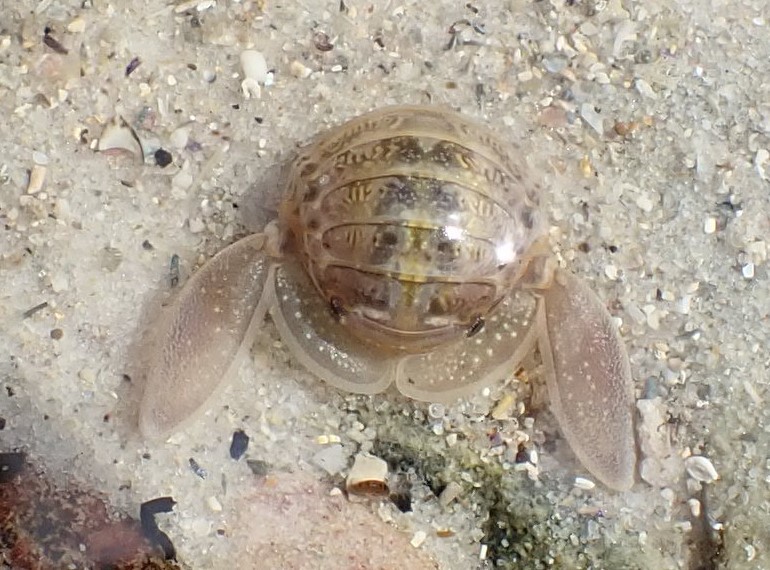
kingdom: Animalia
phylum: Arthropoda
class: Malacostraca
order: Isopoda
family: Sphaeromatidae
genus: Zuzara
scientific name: Zuzara venosa
